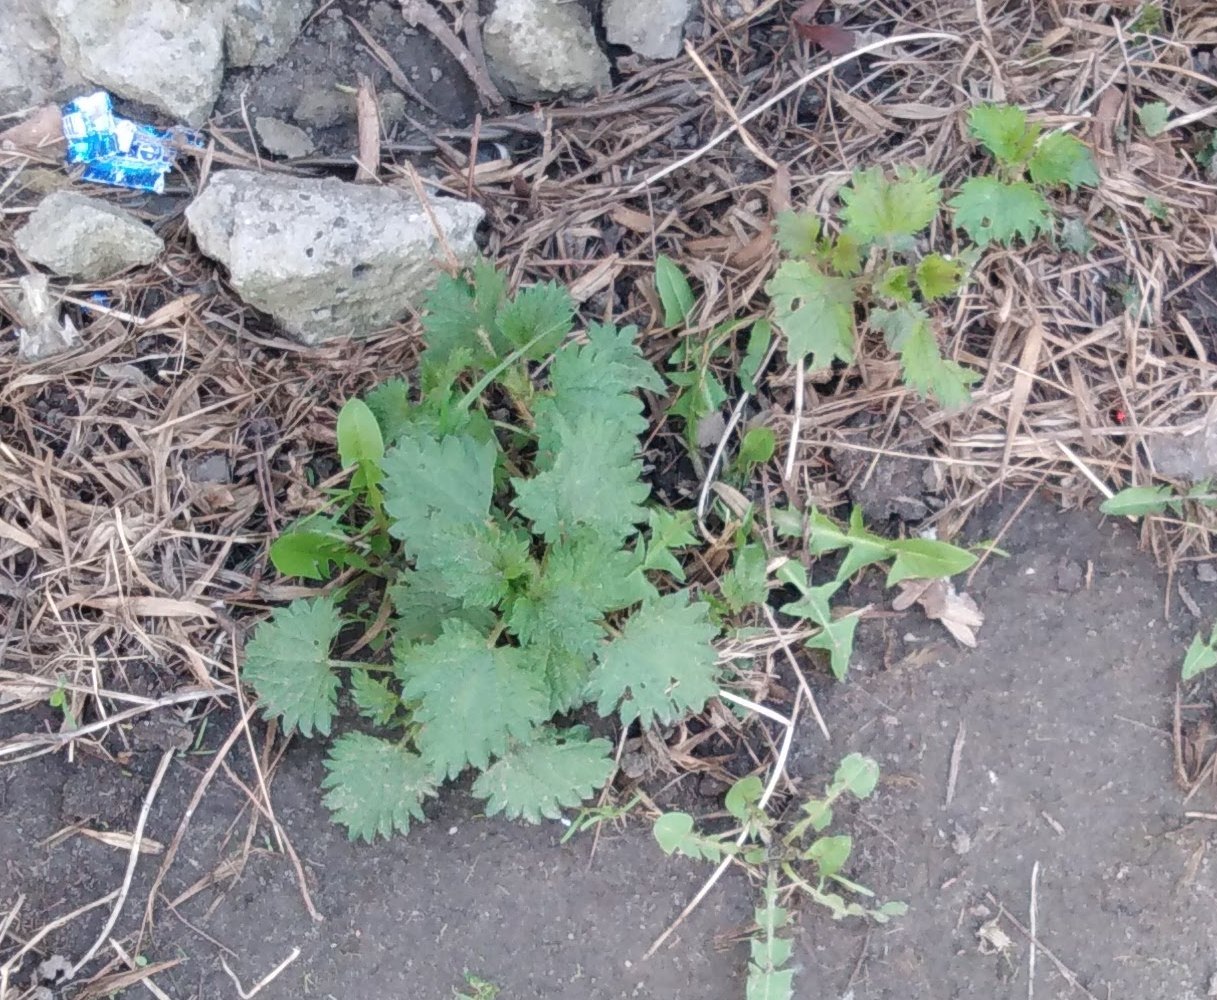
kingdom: Plantae
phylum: Tracheophyta
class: Magnoliopsida
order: Rosales
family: Urticaceae
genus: Urtica
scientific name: Urtica dioica
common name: Common nettle
